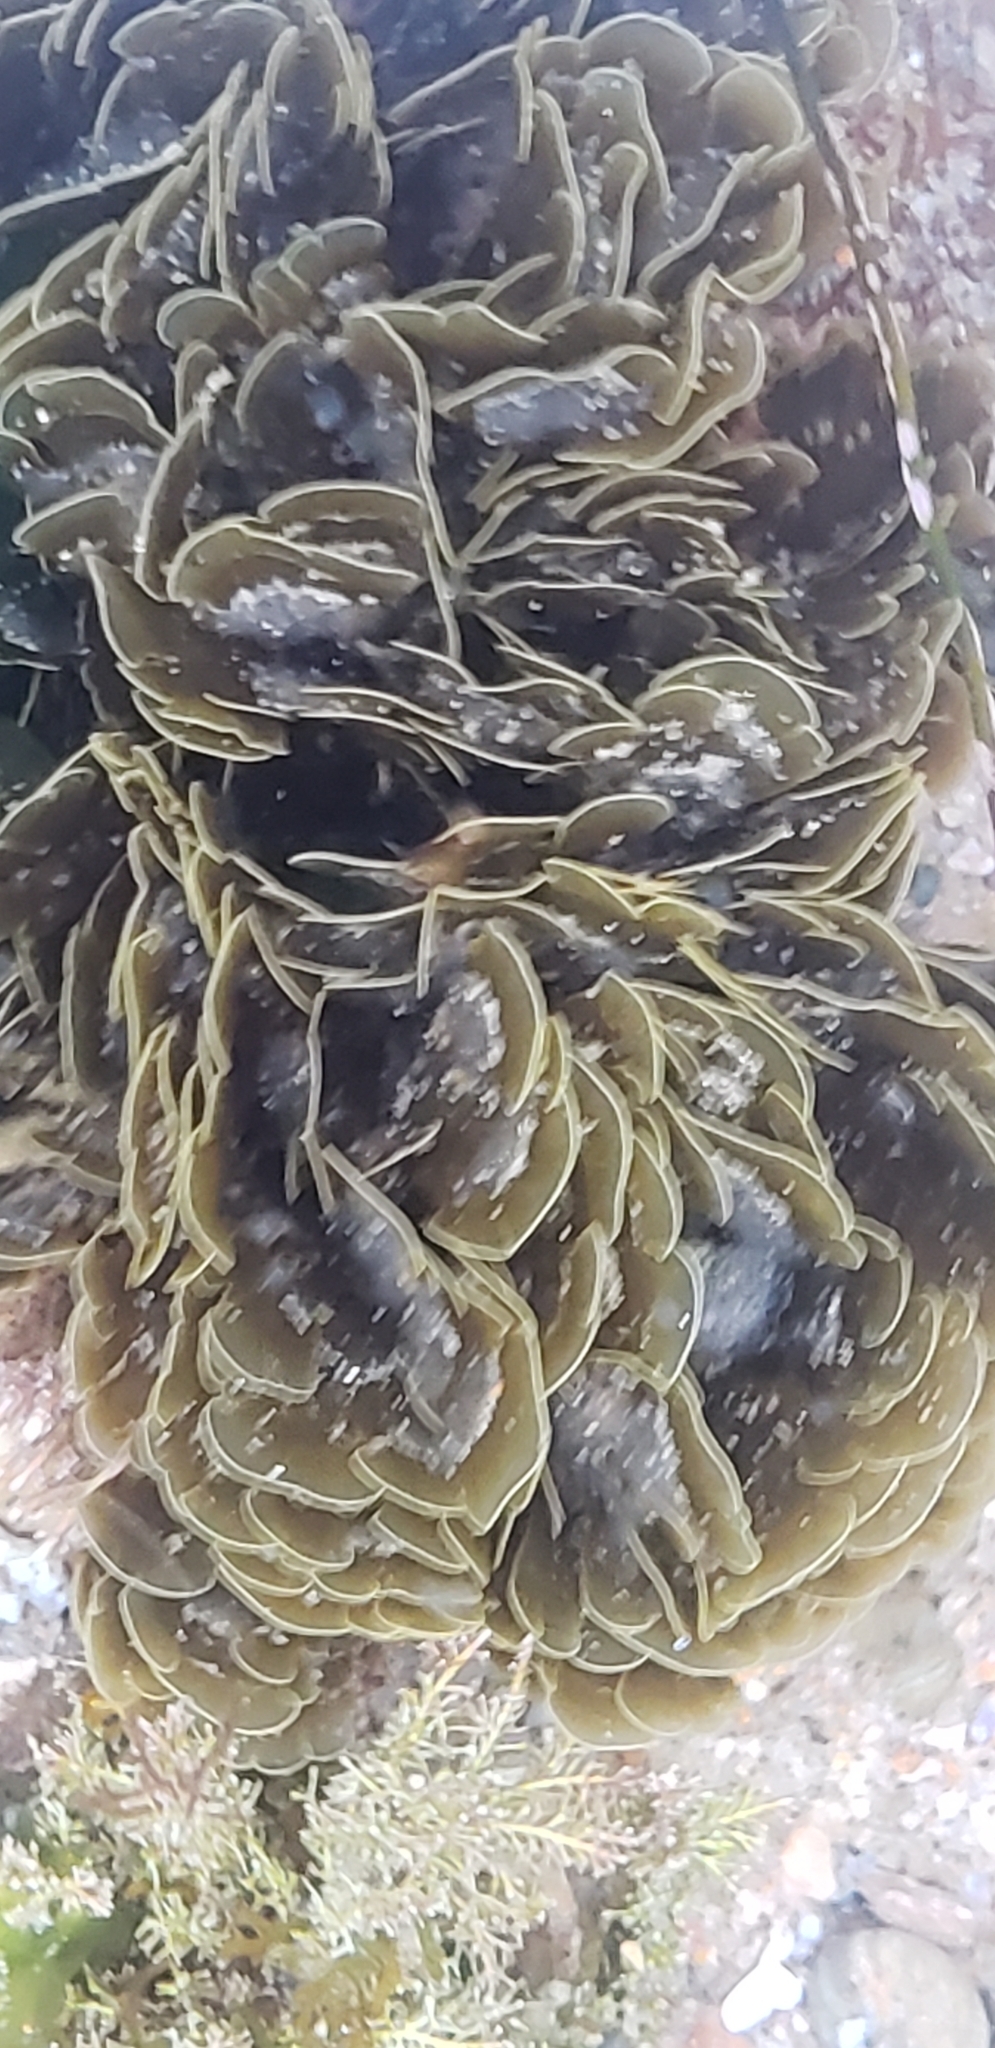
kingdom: Chromista
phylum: Ochrophyta
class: Phaeophyceae
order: Dictyotales
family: Dictyotaceae
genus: Zonaria
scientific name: Zonaria farlowii
